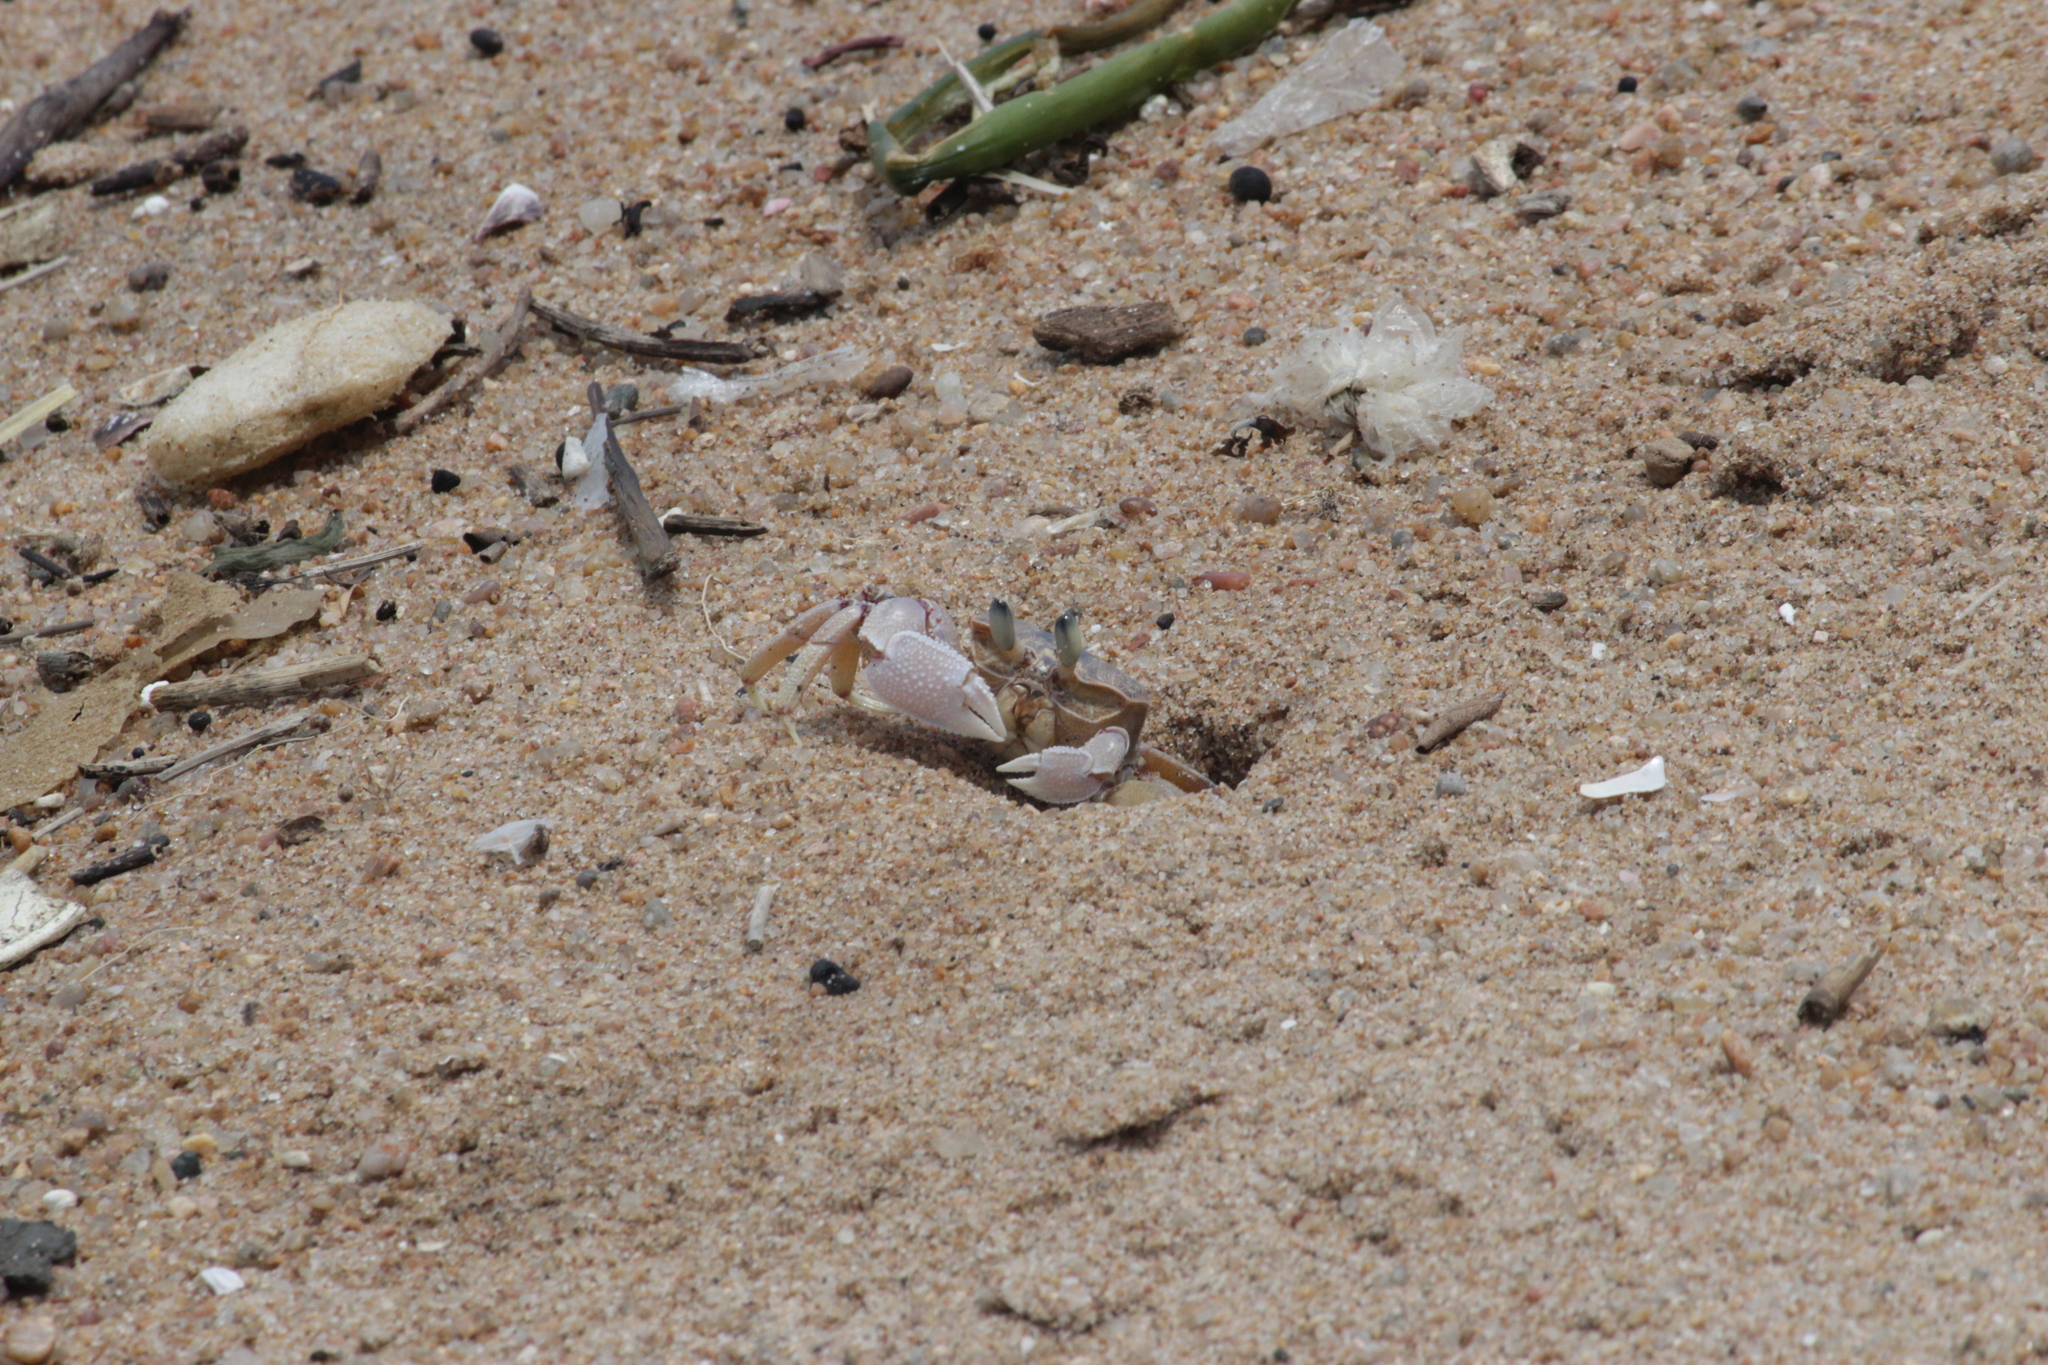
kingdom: Animalia
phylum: Arthropoda
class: Malacostraca
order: Decapoda
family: Ocypodidae
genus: Ocypode
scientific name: Ocypode ryderi
